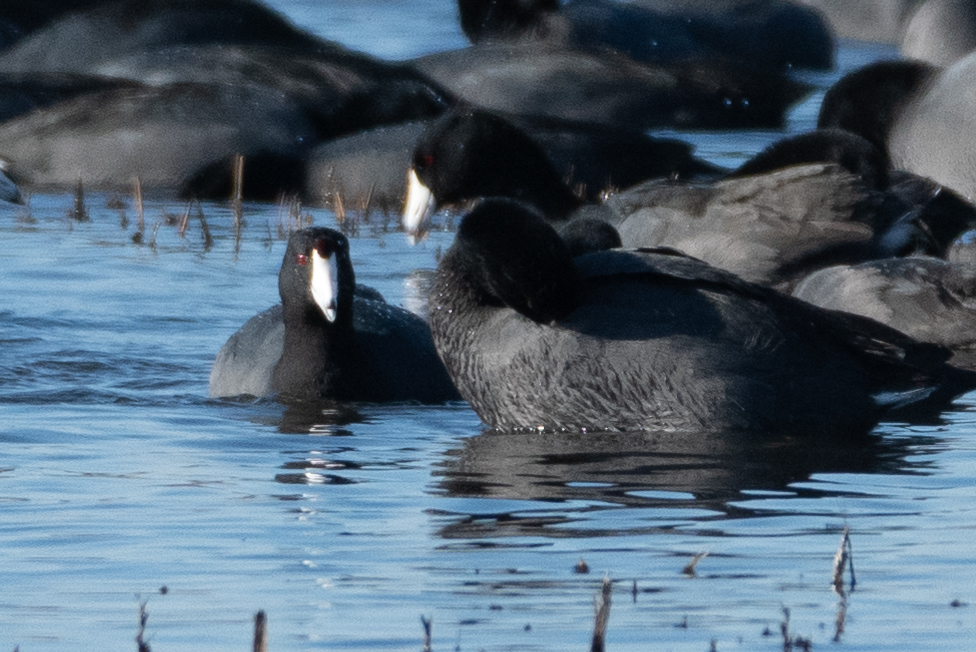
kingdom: Animalia
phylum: Chordata
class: Aves
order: Gruiformes
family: Rallidae
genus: Fulica
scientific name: Fulica americana
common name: American coot
